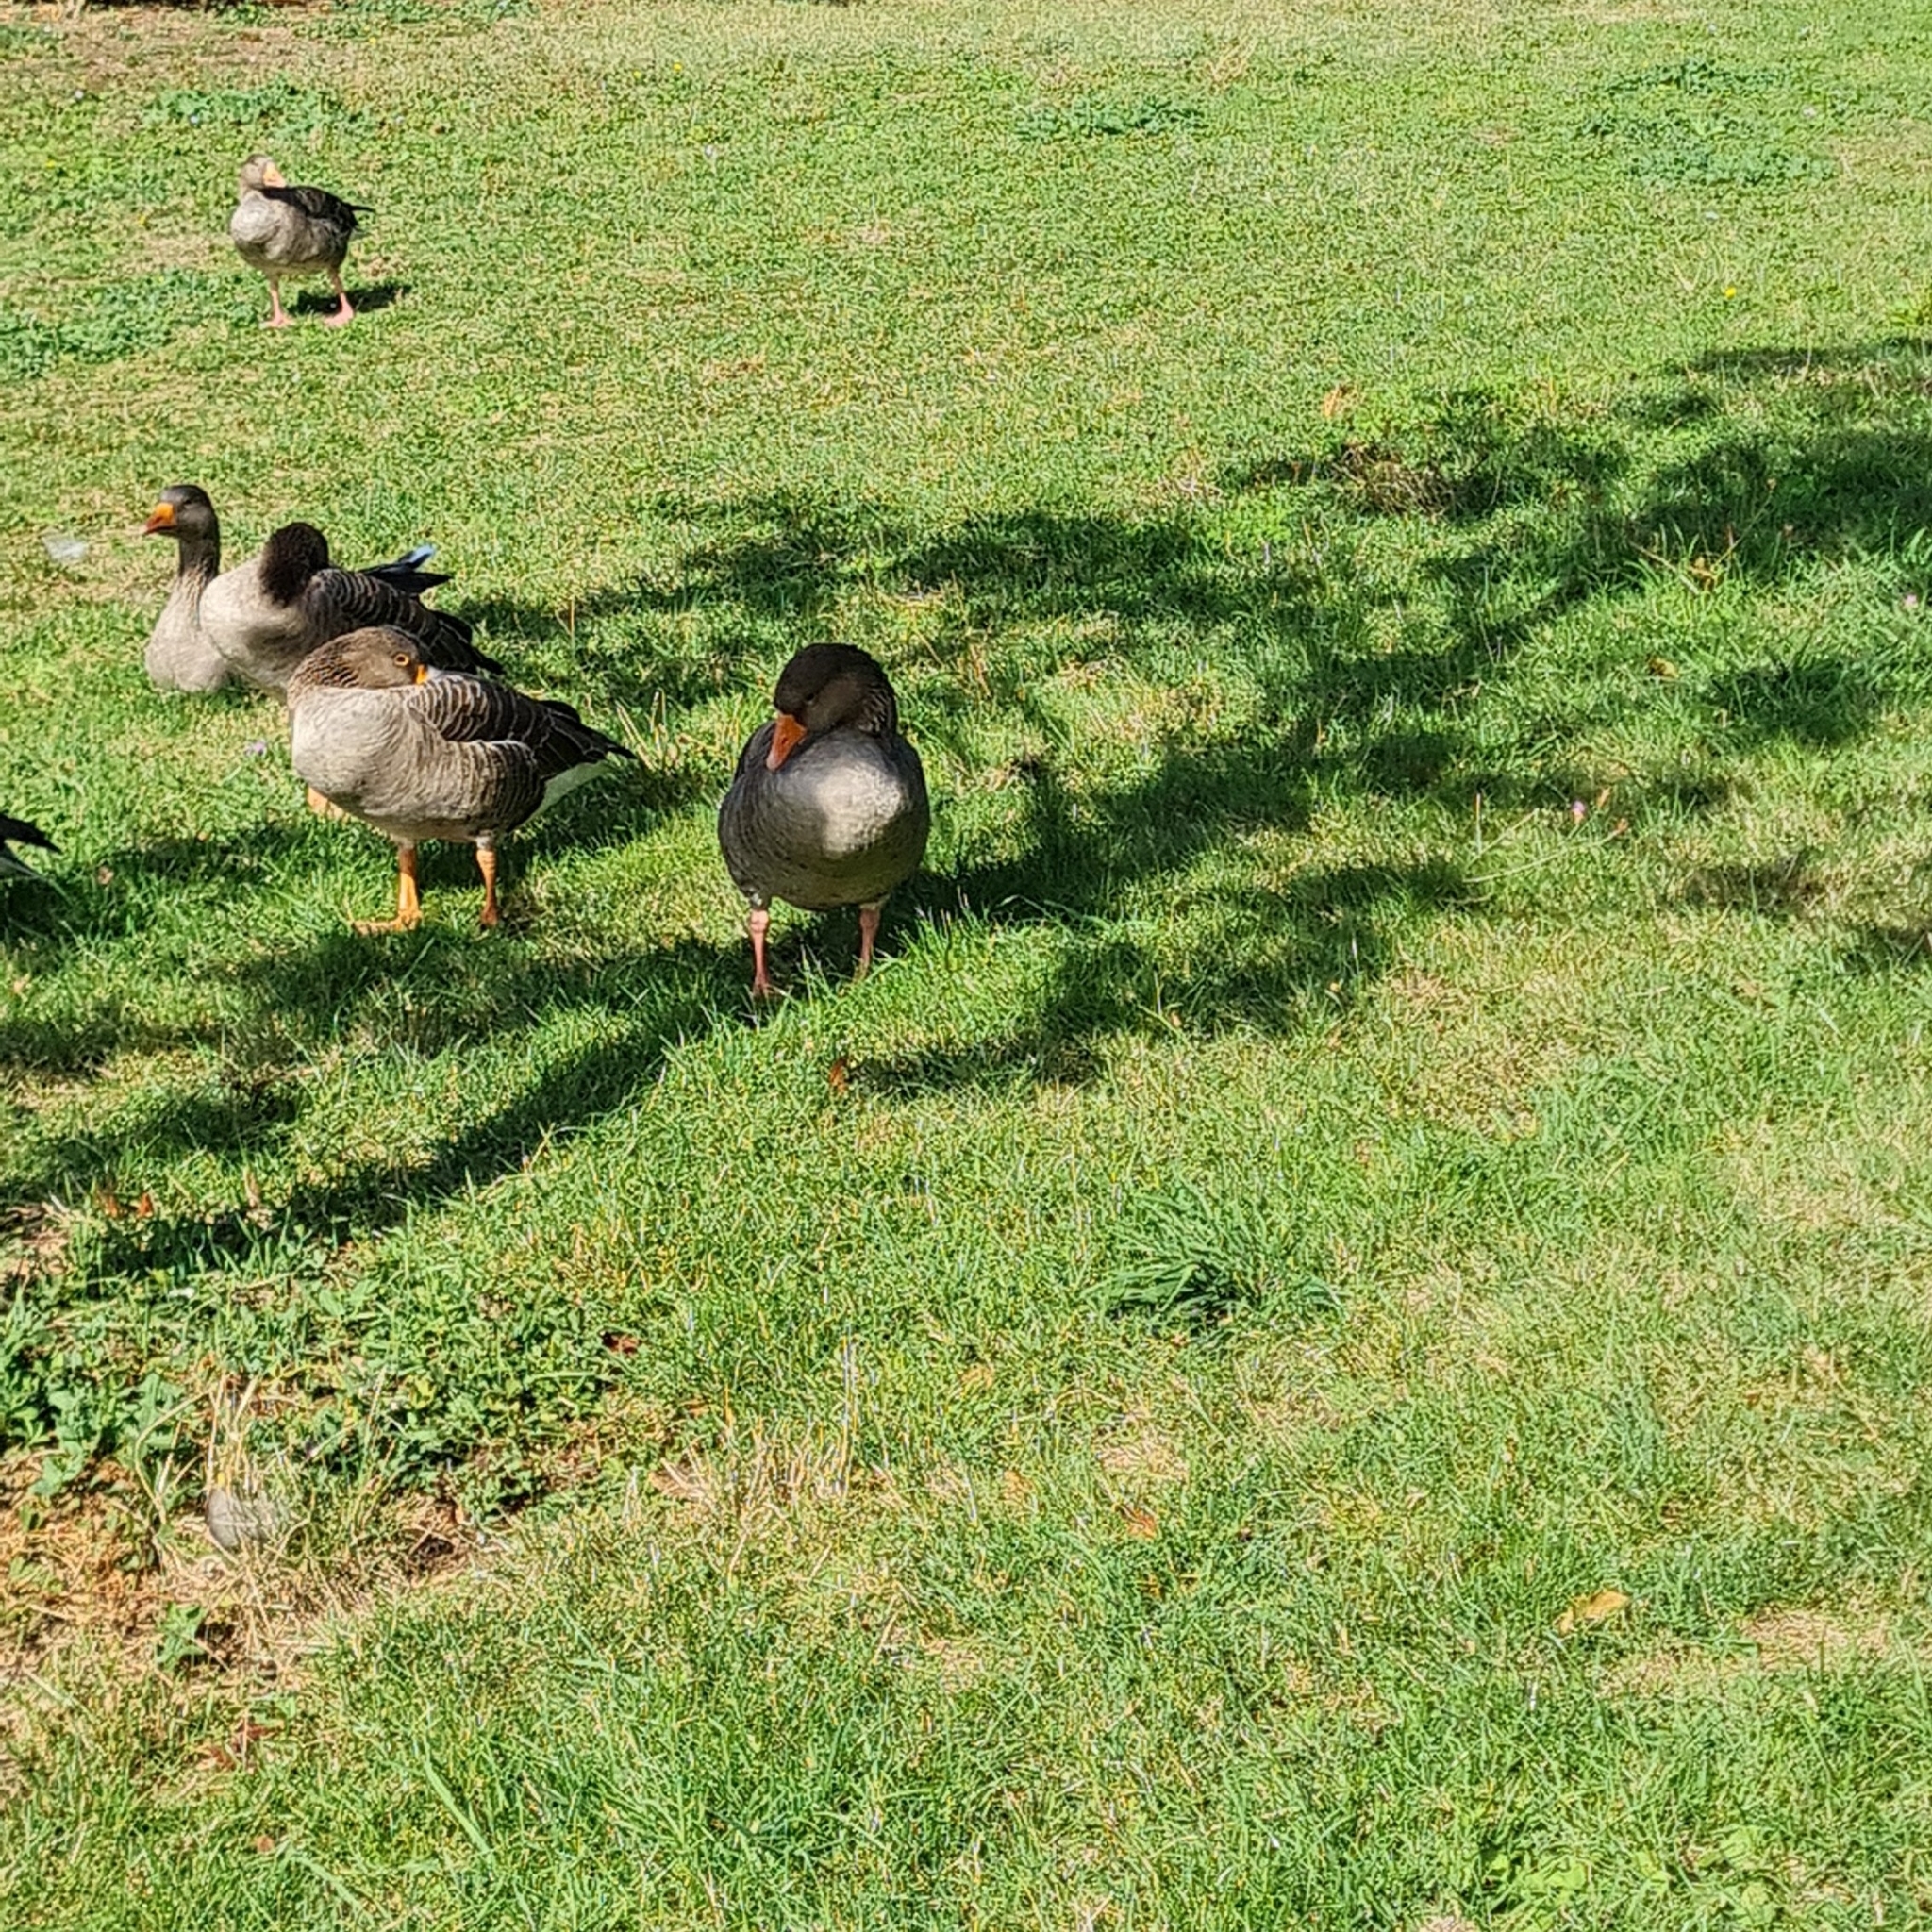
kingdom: Animalia
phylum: Chordata
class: Aves
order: Anseriformes
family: Anatidae
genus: Anser
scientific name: Anser anser
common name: Greylag goose
